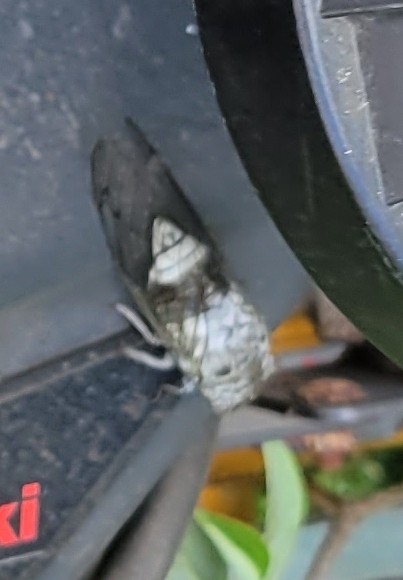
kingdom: Animalia
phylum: Arthropoda
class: Insecta
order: Hemiptera
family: Cicadidae
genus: Diceroprocta
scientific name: Diceroprocta grossa
